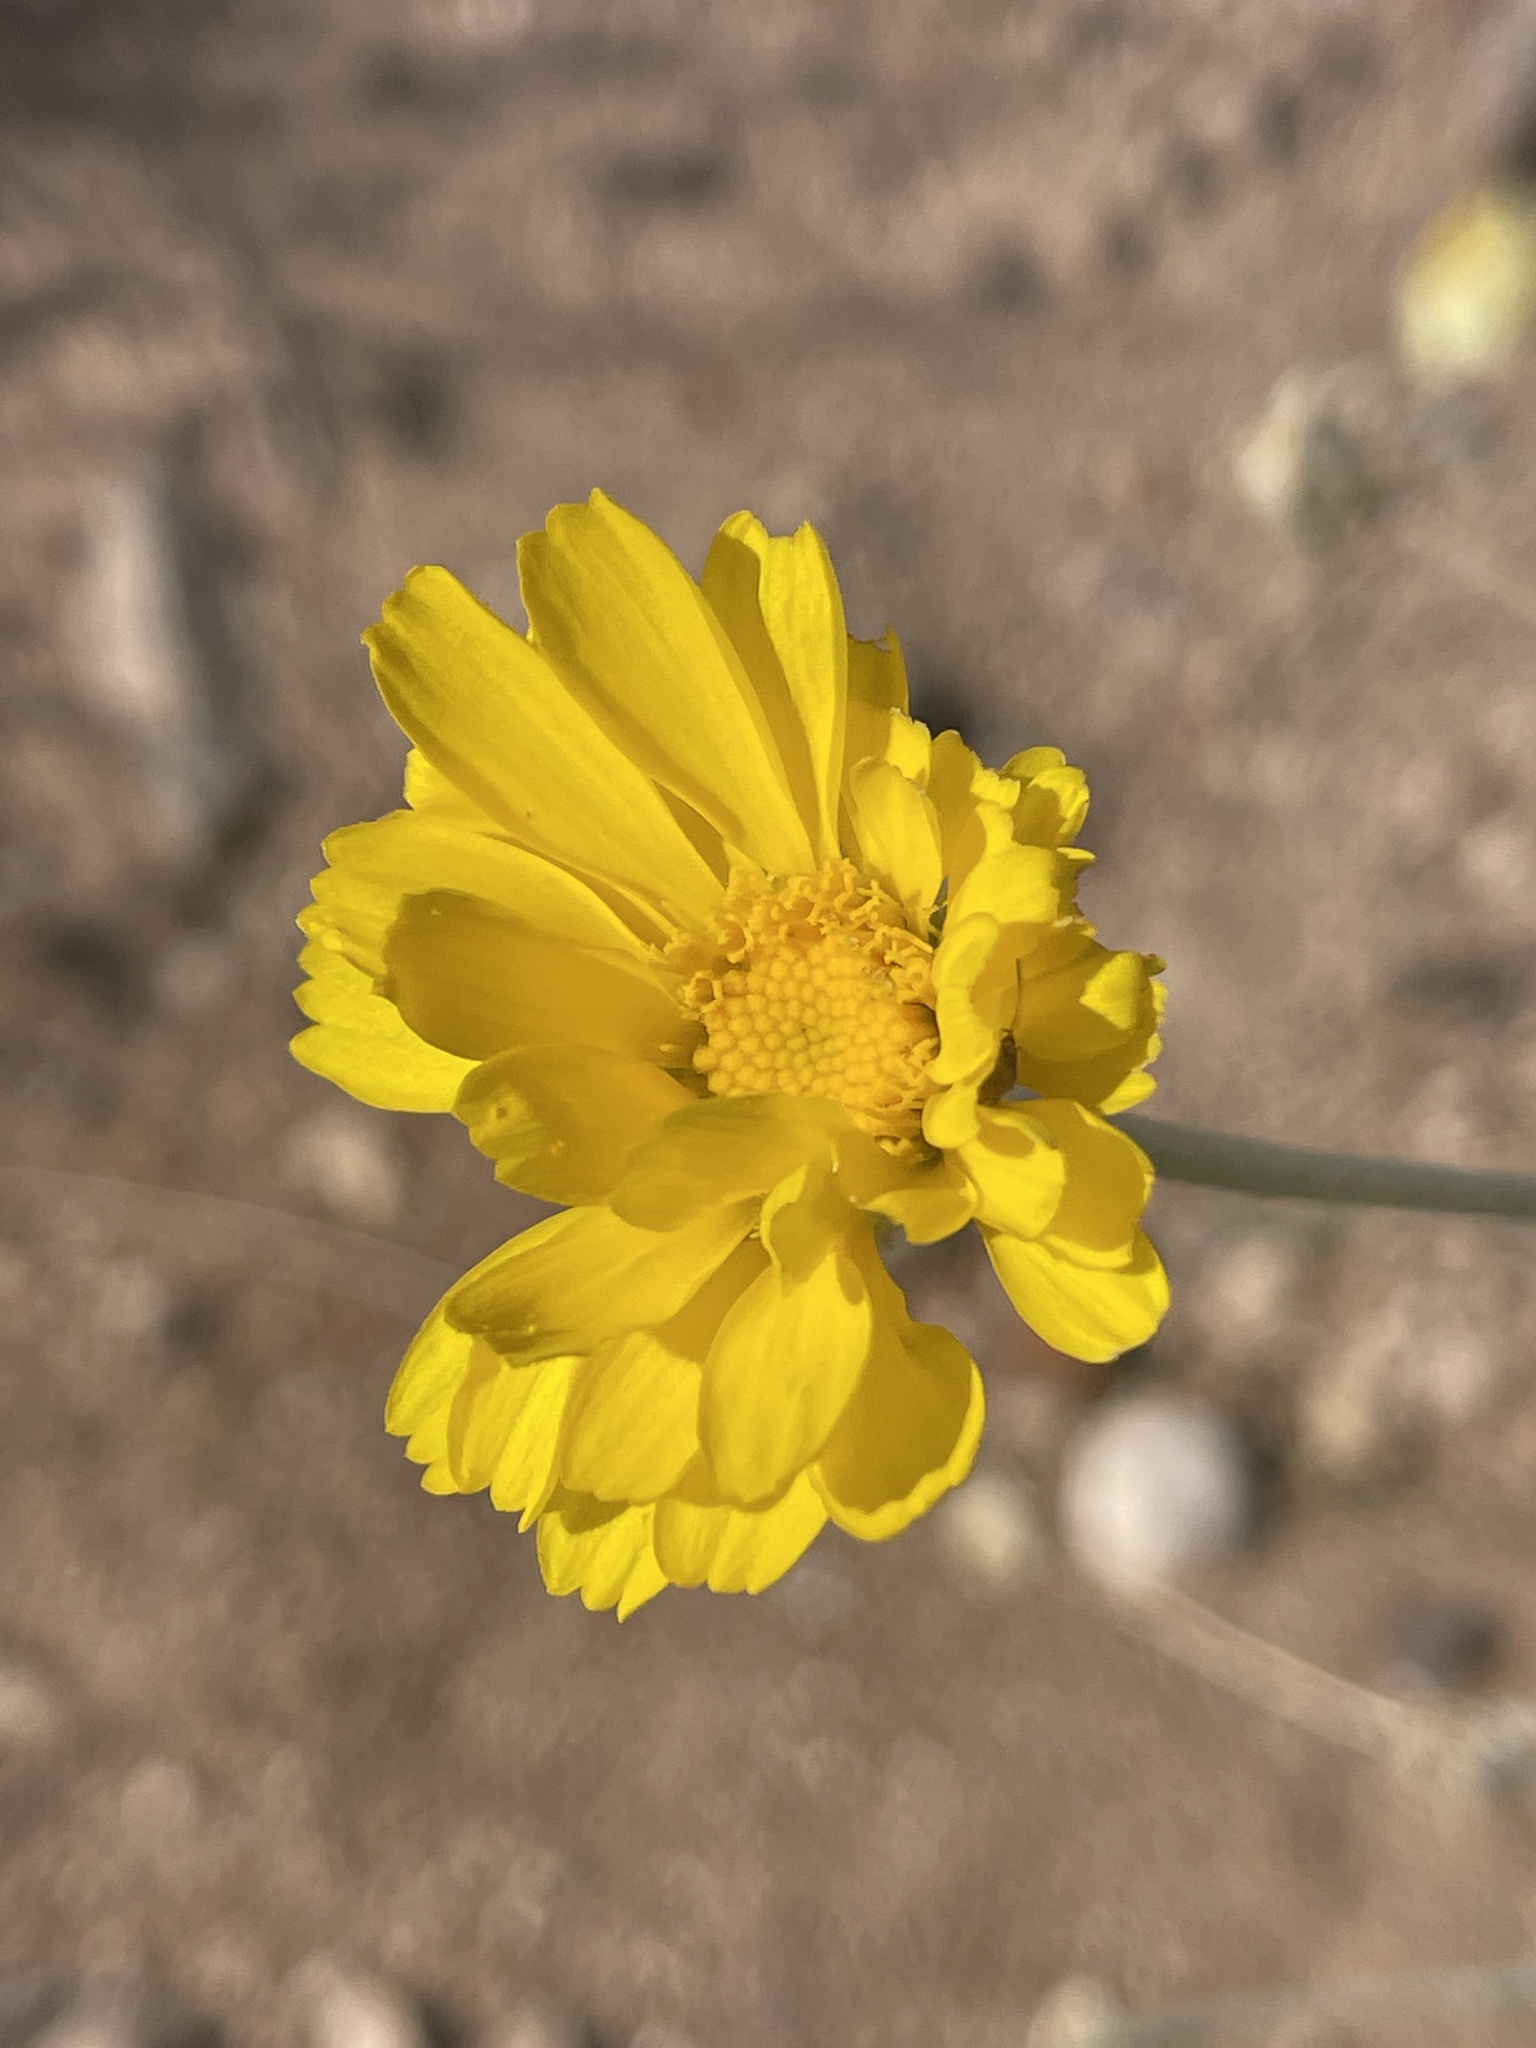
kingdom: Plantae
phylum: Tracheophyta
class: Magnoliopsida
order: Asterales
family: Asteraceae
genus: Baileya
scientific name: Baileya multiradiata
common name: Desert-marigold
